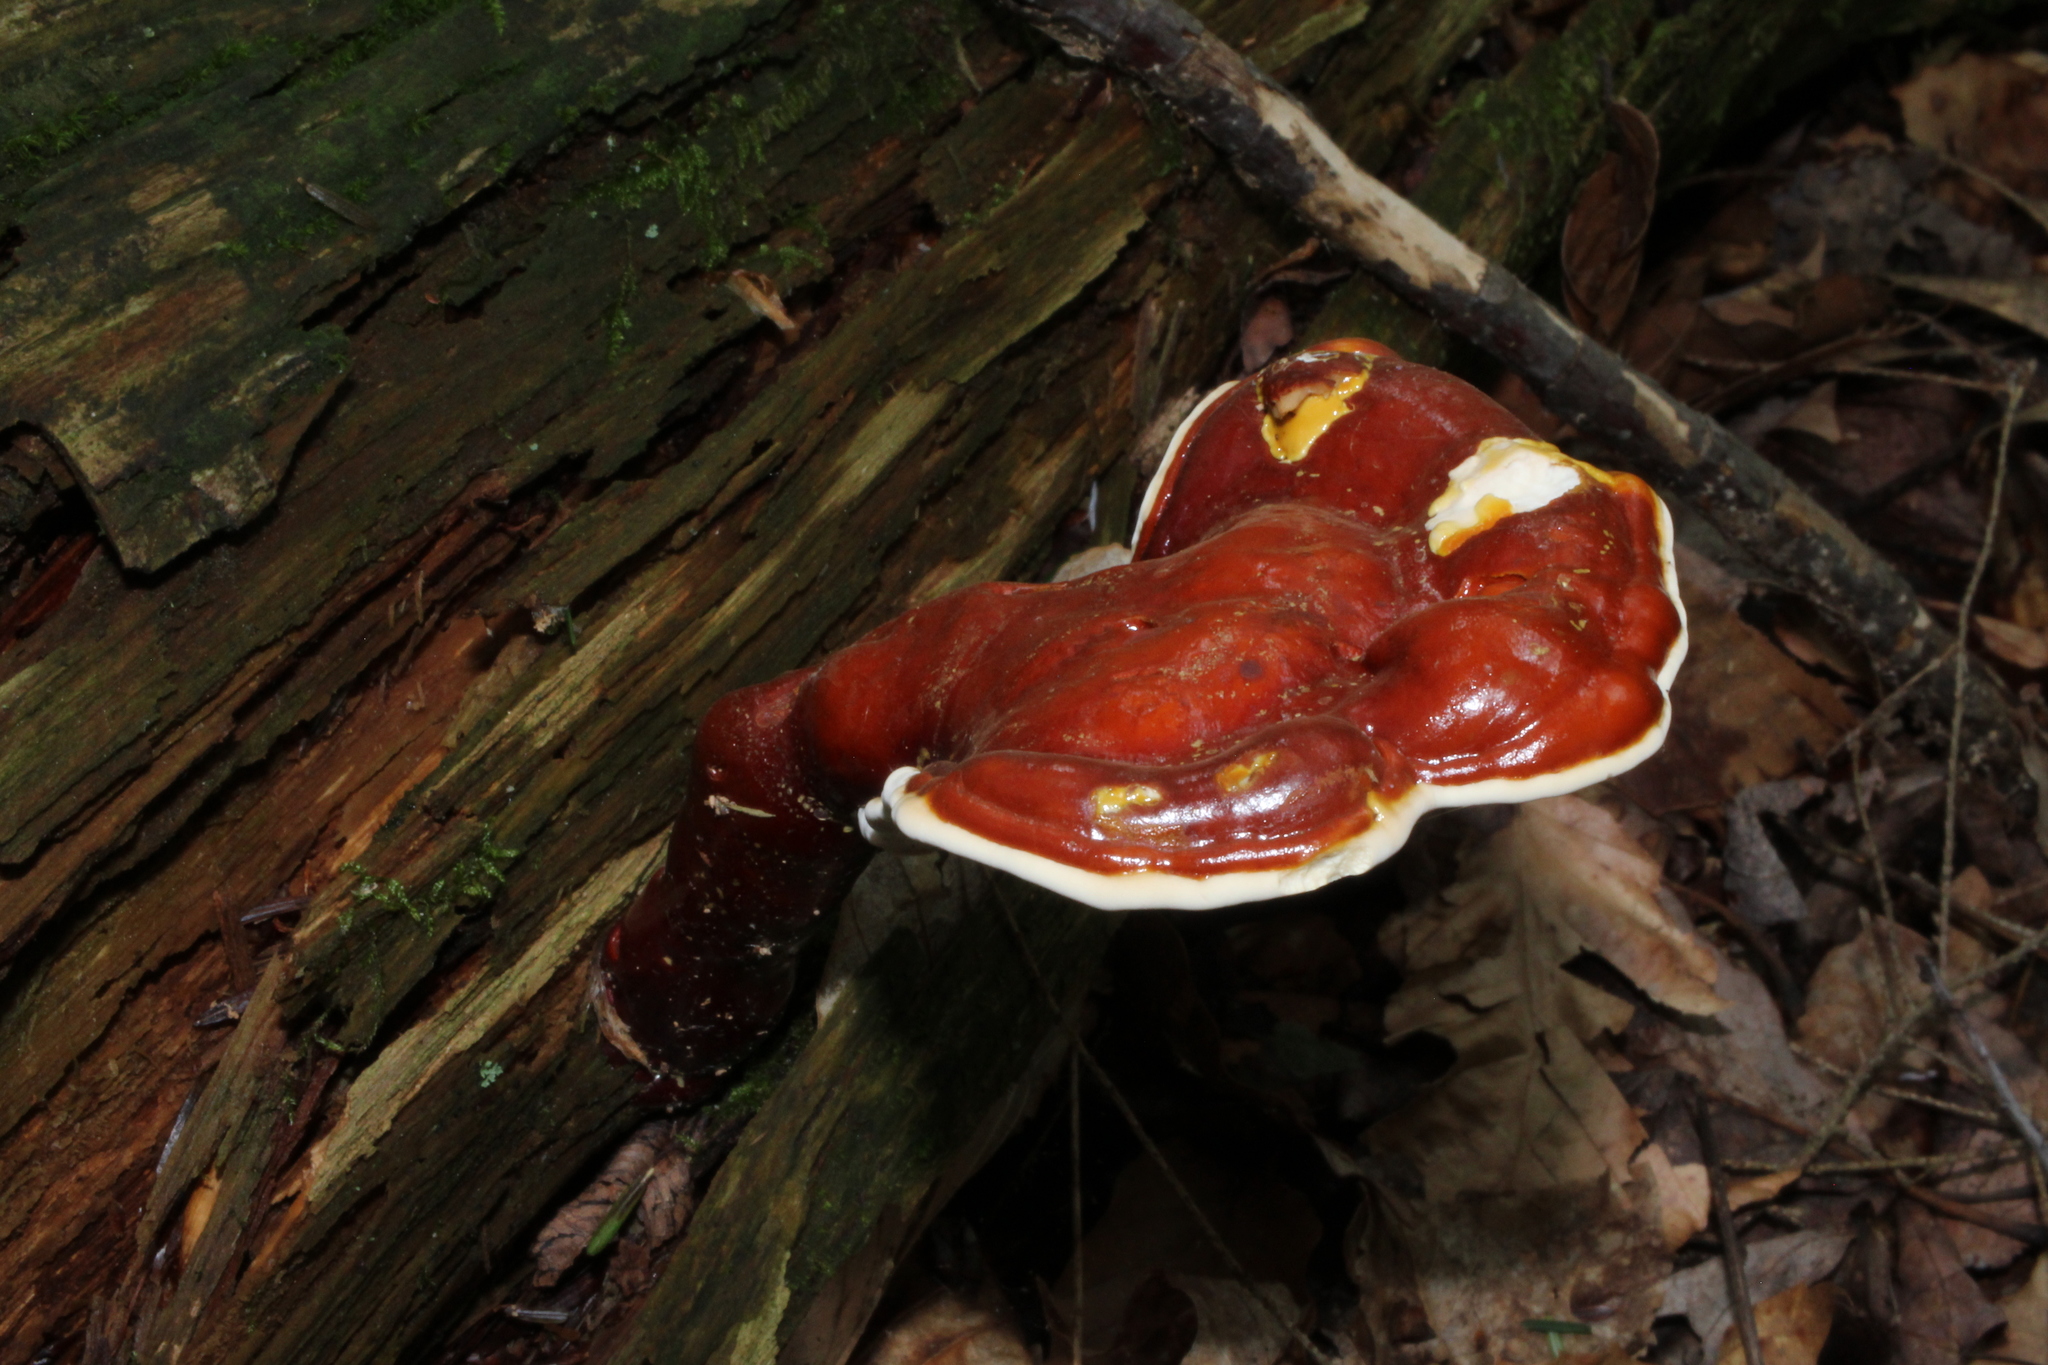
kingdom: Fungi
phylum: Basidiomycota
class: Agaricomycetes
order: Polyporales
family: Polyporaceae
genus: Ganoderma
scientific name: Ganoderma tsugae
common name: Hemlock varnish shelf
